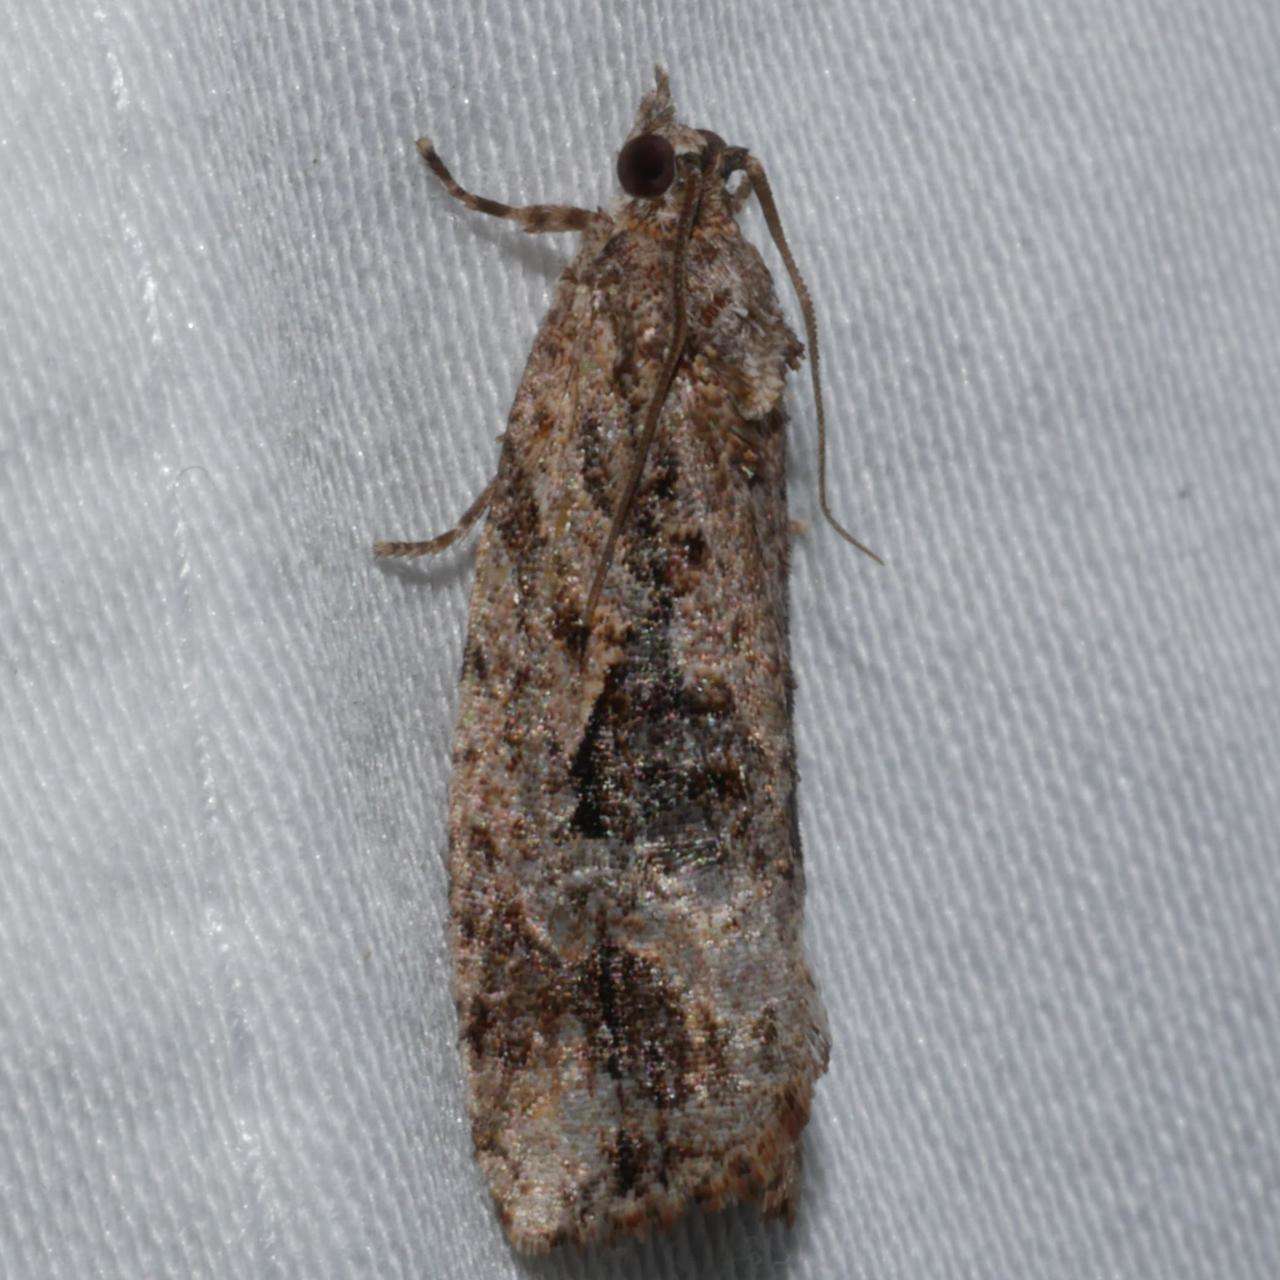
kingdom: Animalia
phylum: Arthropoda
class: Insecta
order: Lepidoptera
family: Tortricidae
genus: Thrincophora
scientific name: Thrincophora lignigerana
